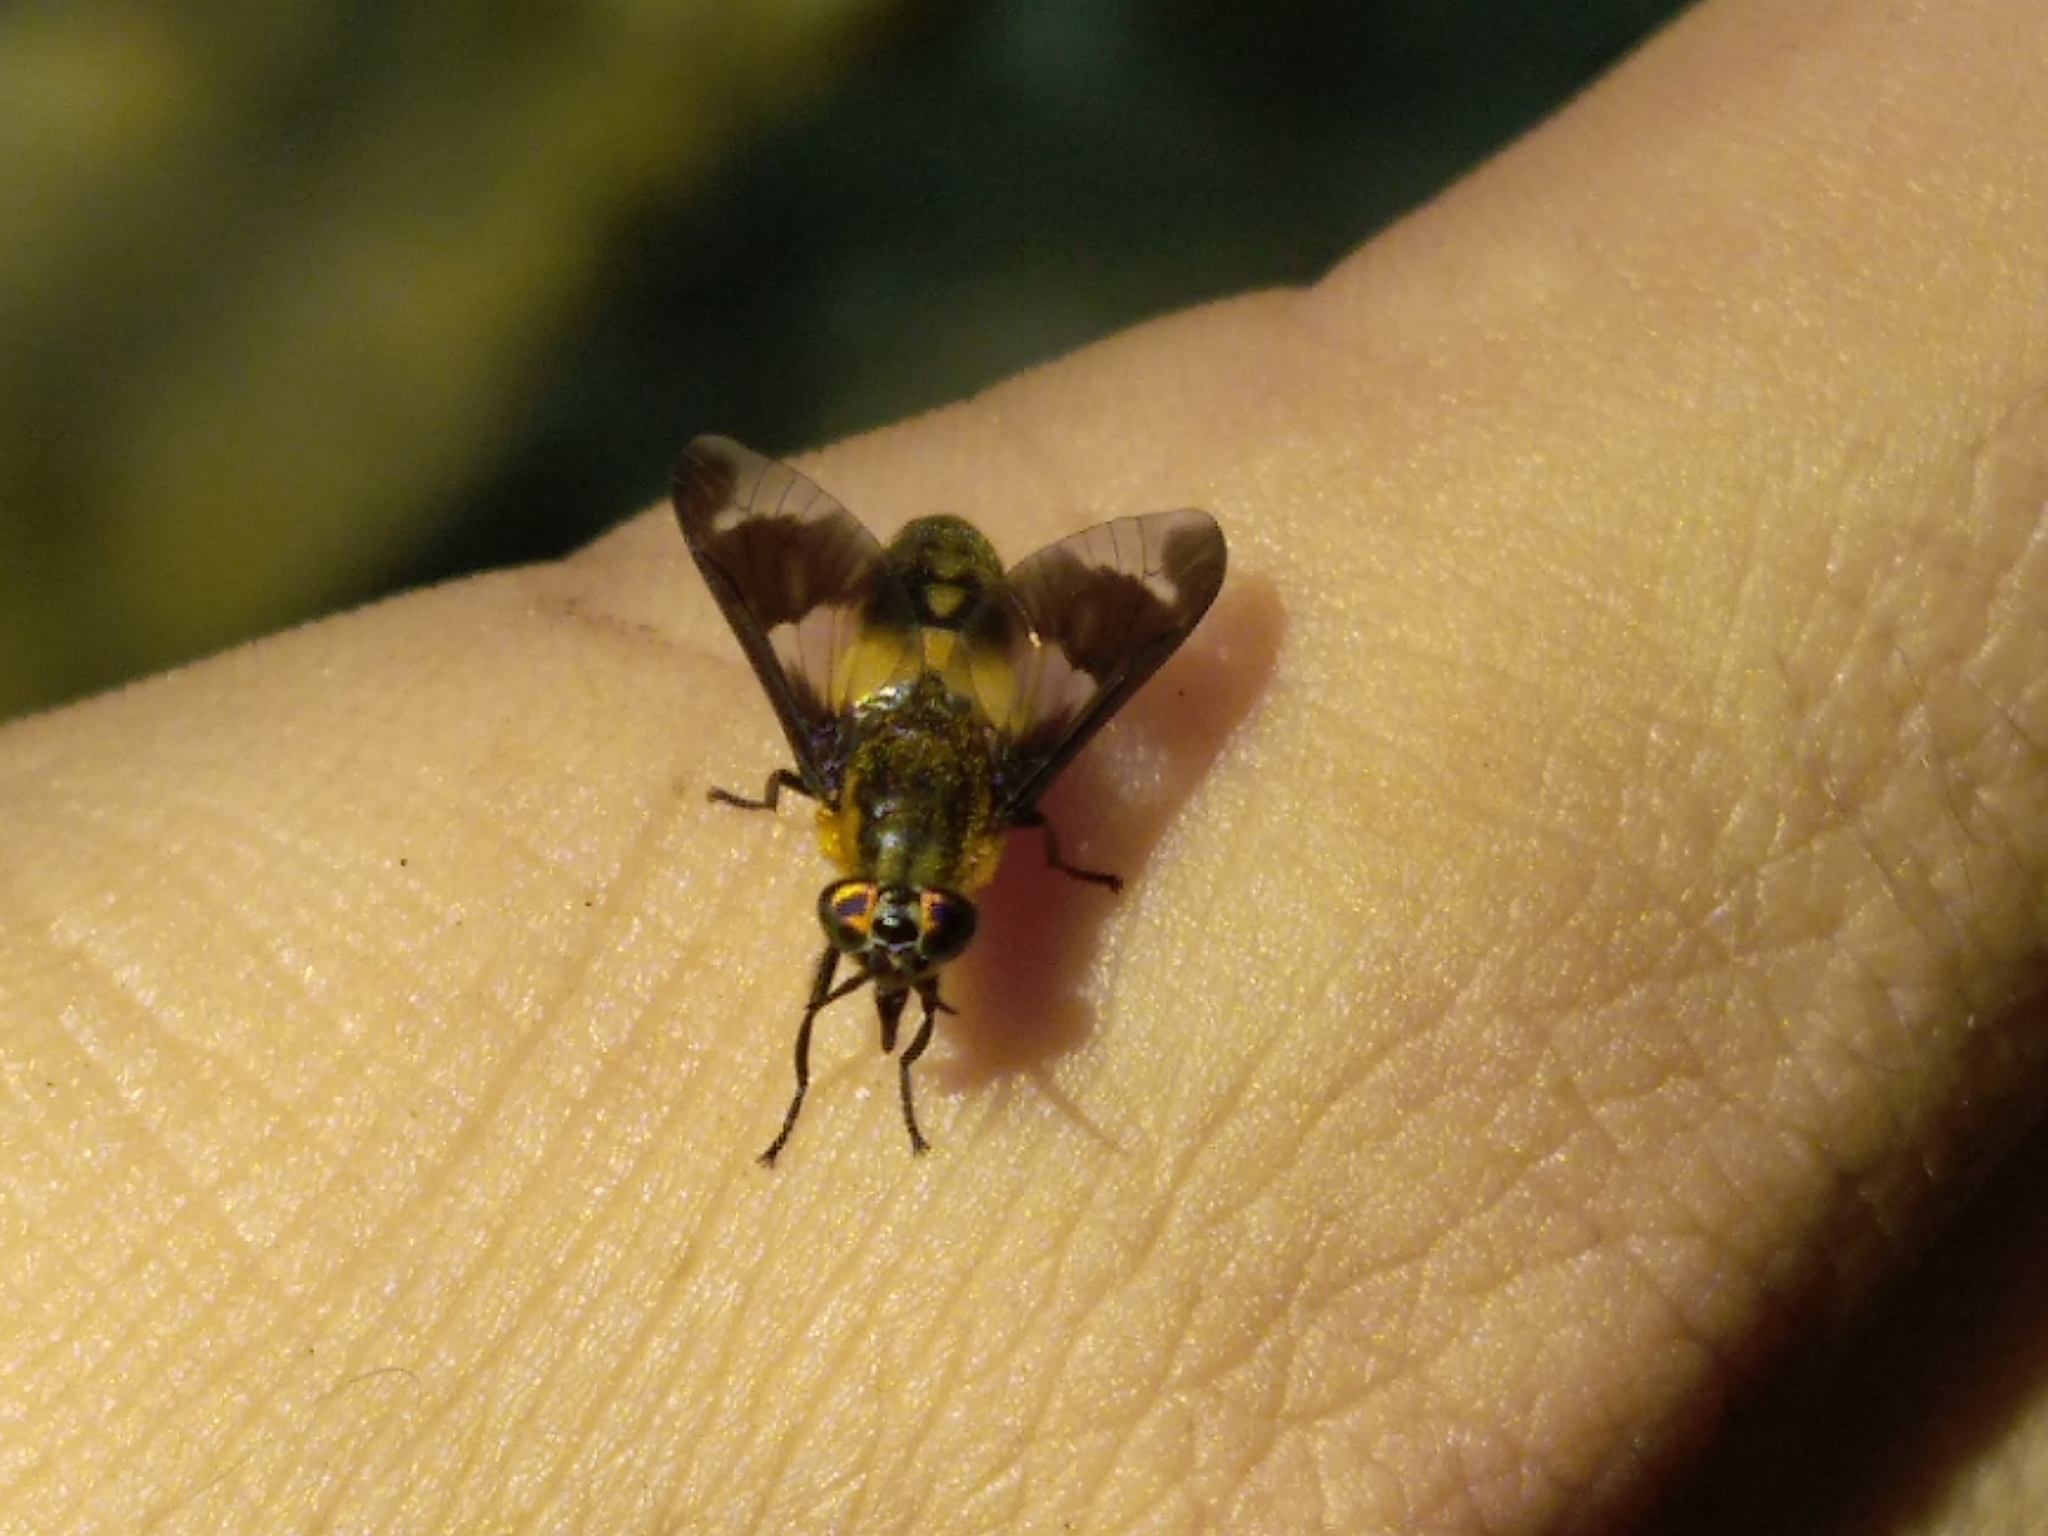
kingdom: Animalia
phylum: Arthropoda
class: Insecta
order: Diptera
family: Tabanidae
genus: Chrysops
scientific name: Chrysops caecutiens
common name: Splayed deerfly
